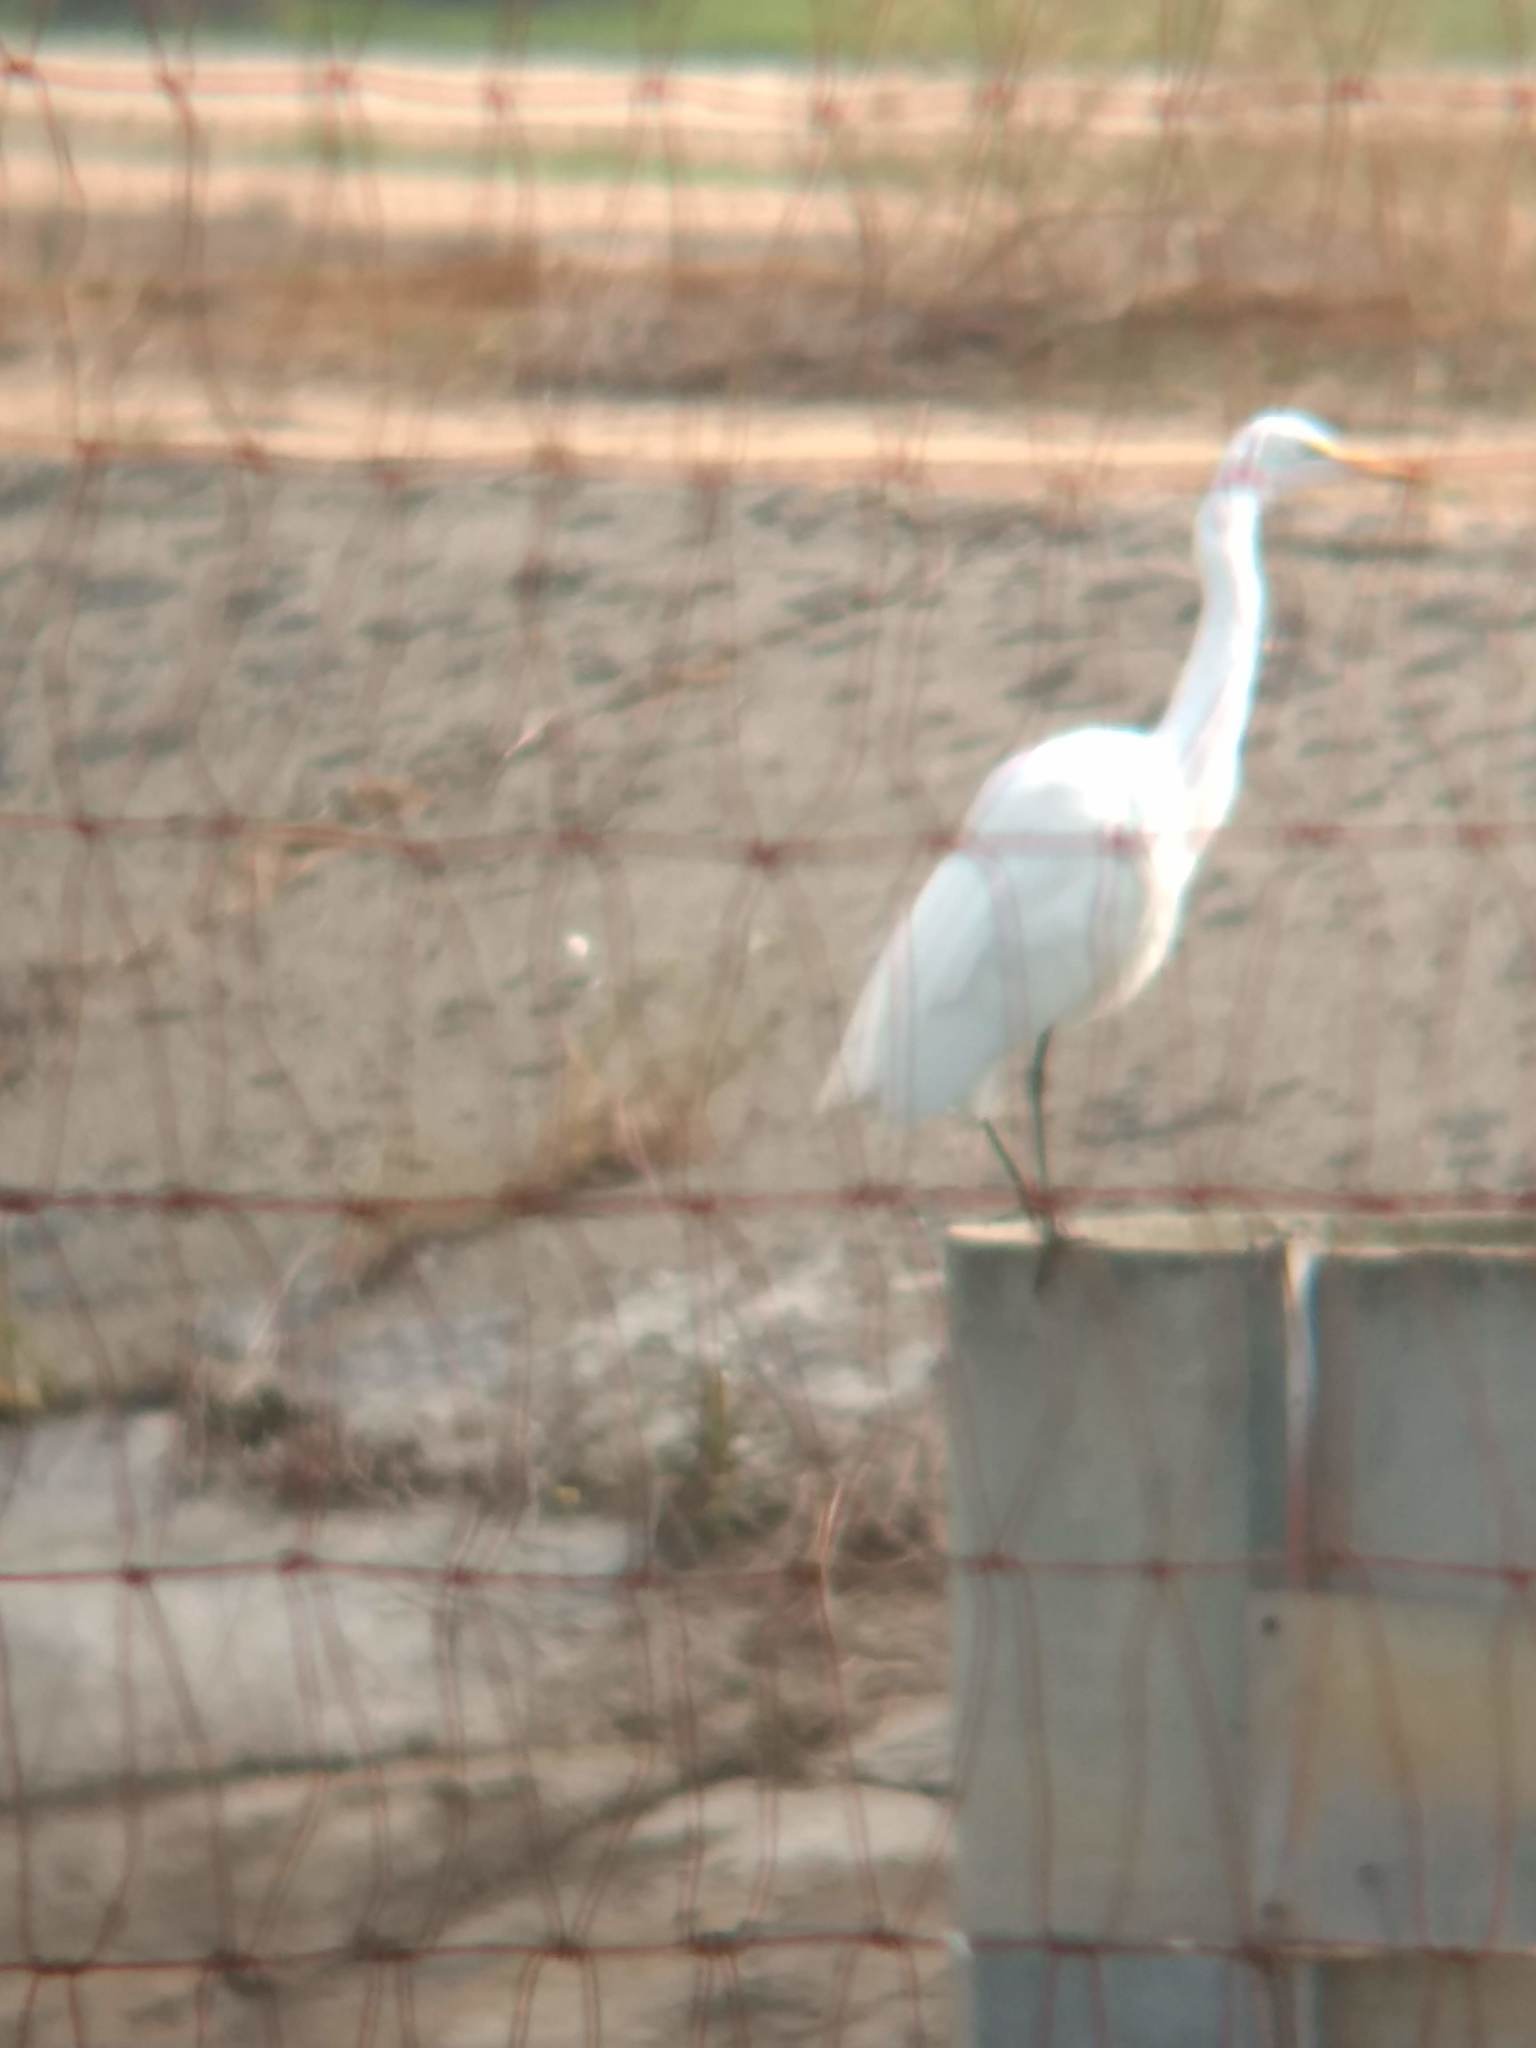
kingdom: Animalia
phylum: Chordata
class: Aves
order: Pelecaniformes
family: Ardeidae
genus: Ardea
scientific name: Ardea alba
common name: Great egret
